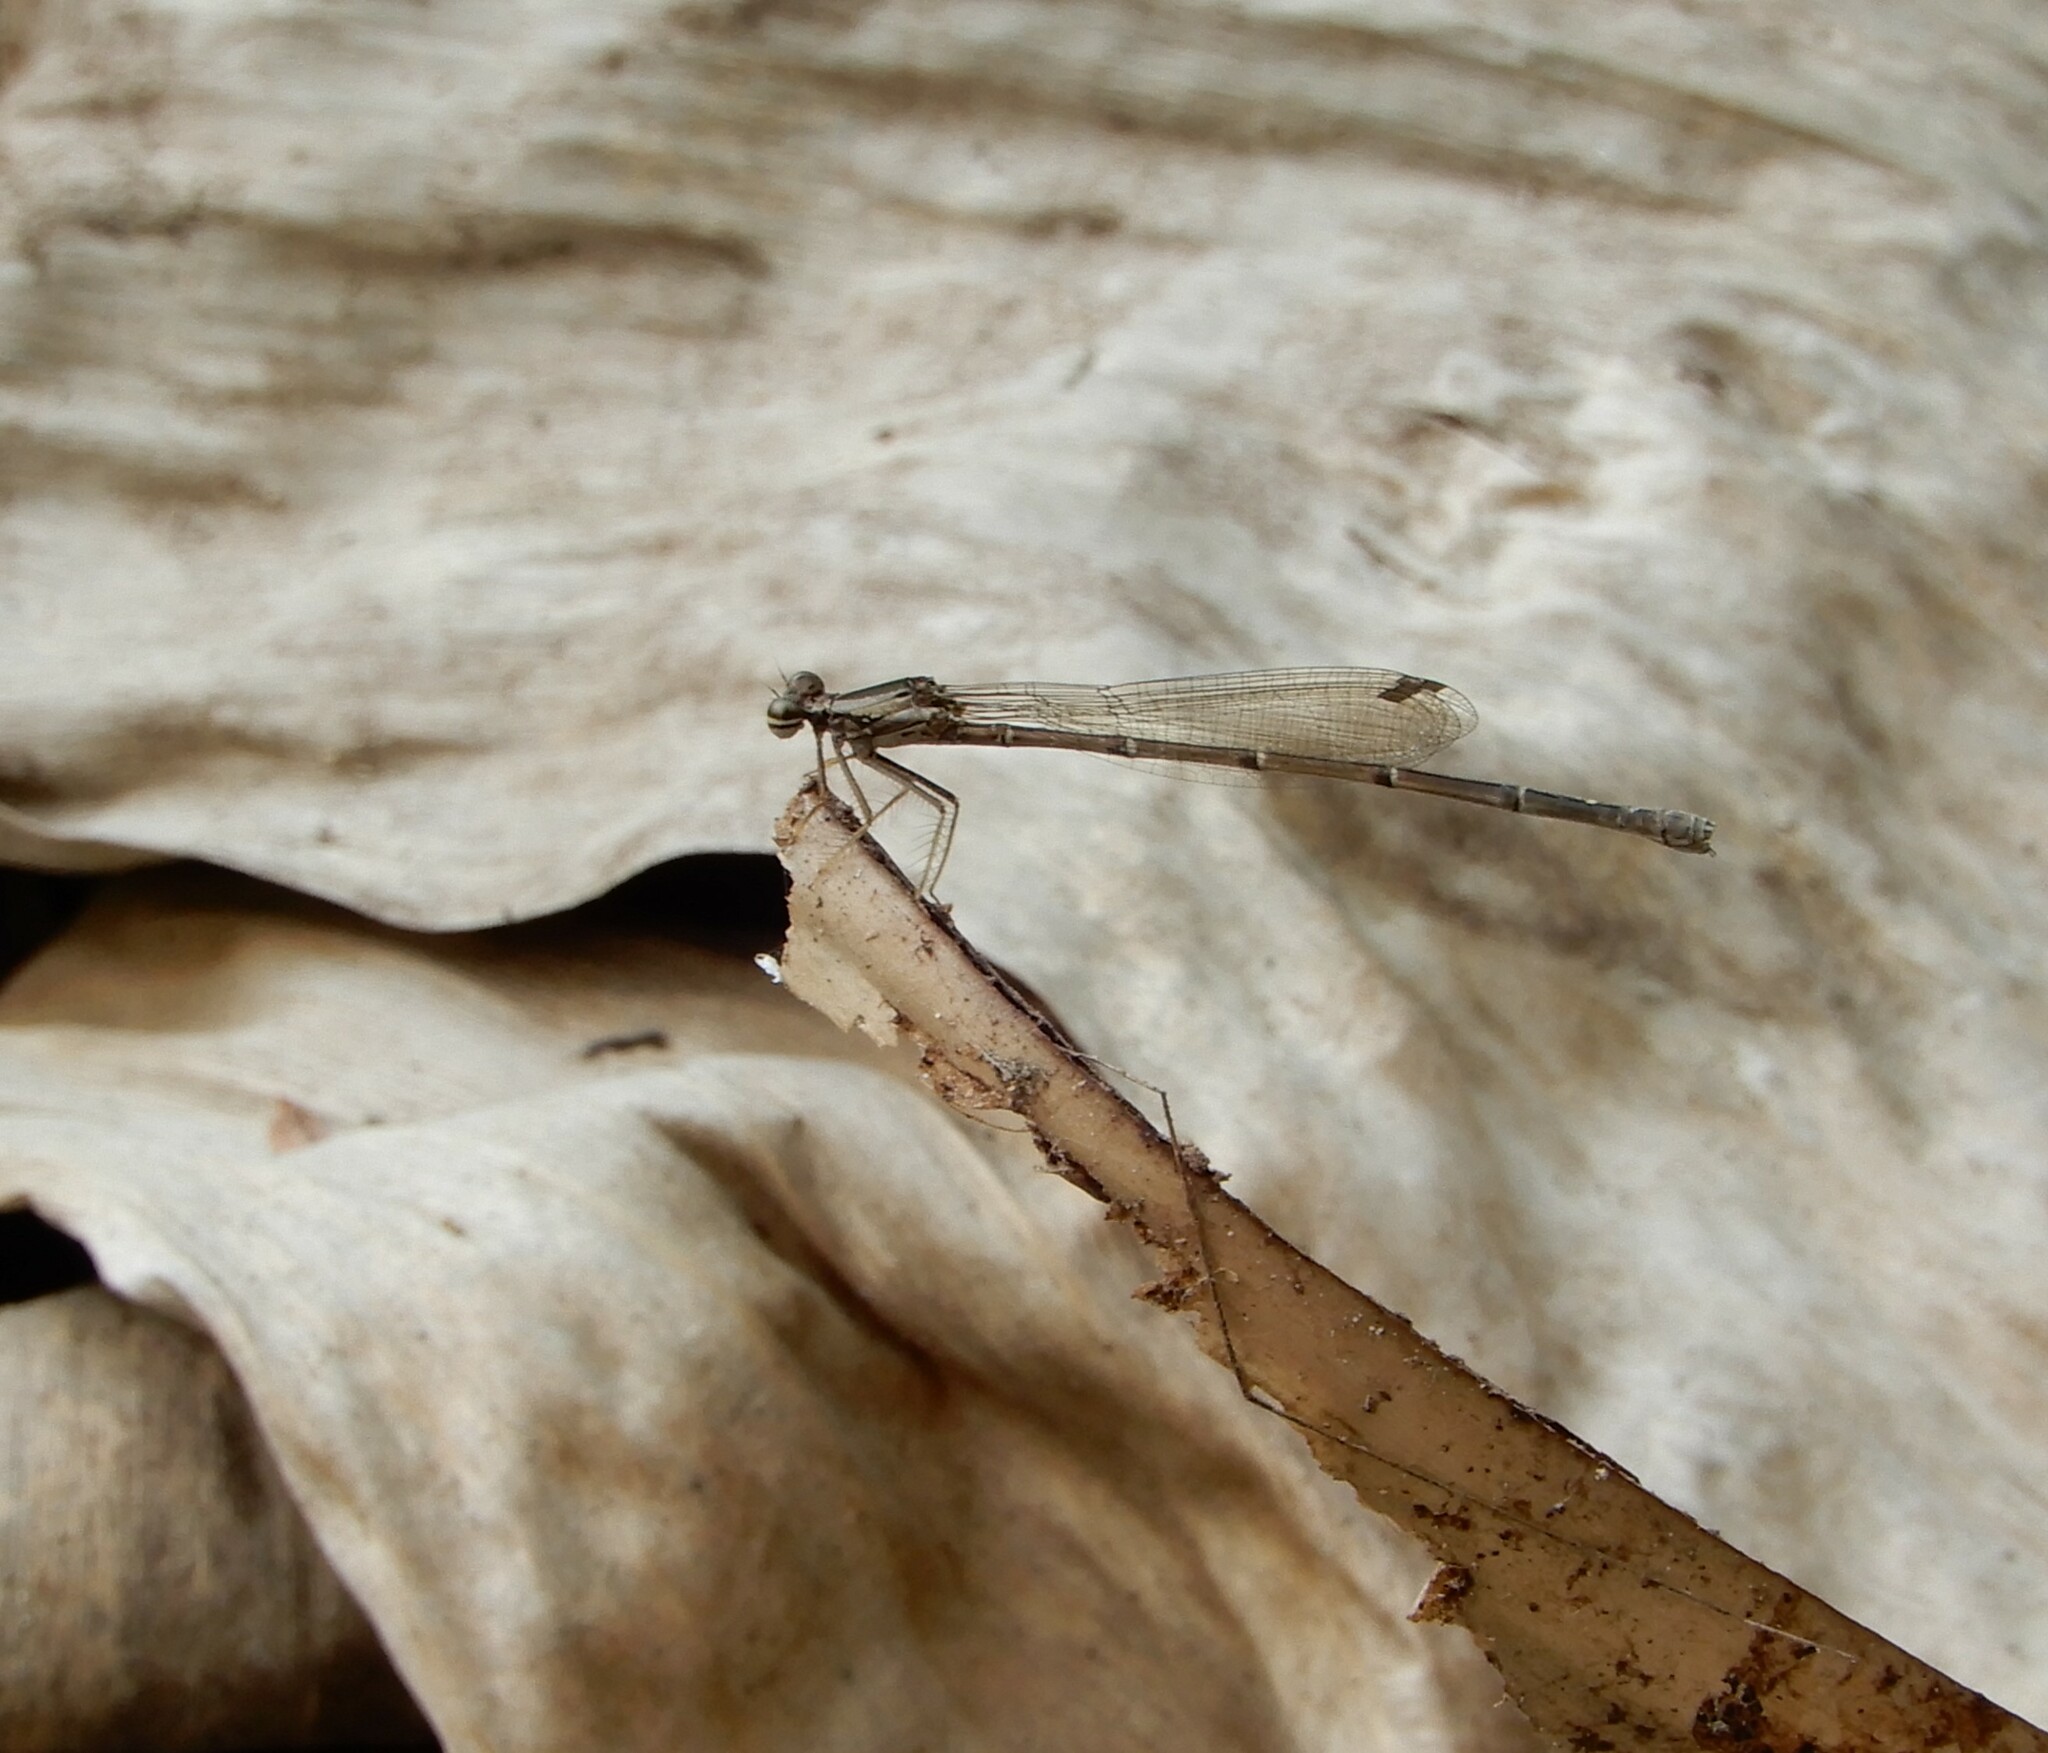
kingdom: Animalia
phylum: Arthropoda
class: Insecta
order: Odonata
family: Platycnemididae
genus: Copera
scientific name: Copera marginipes
